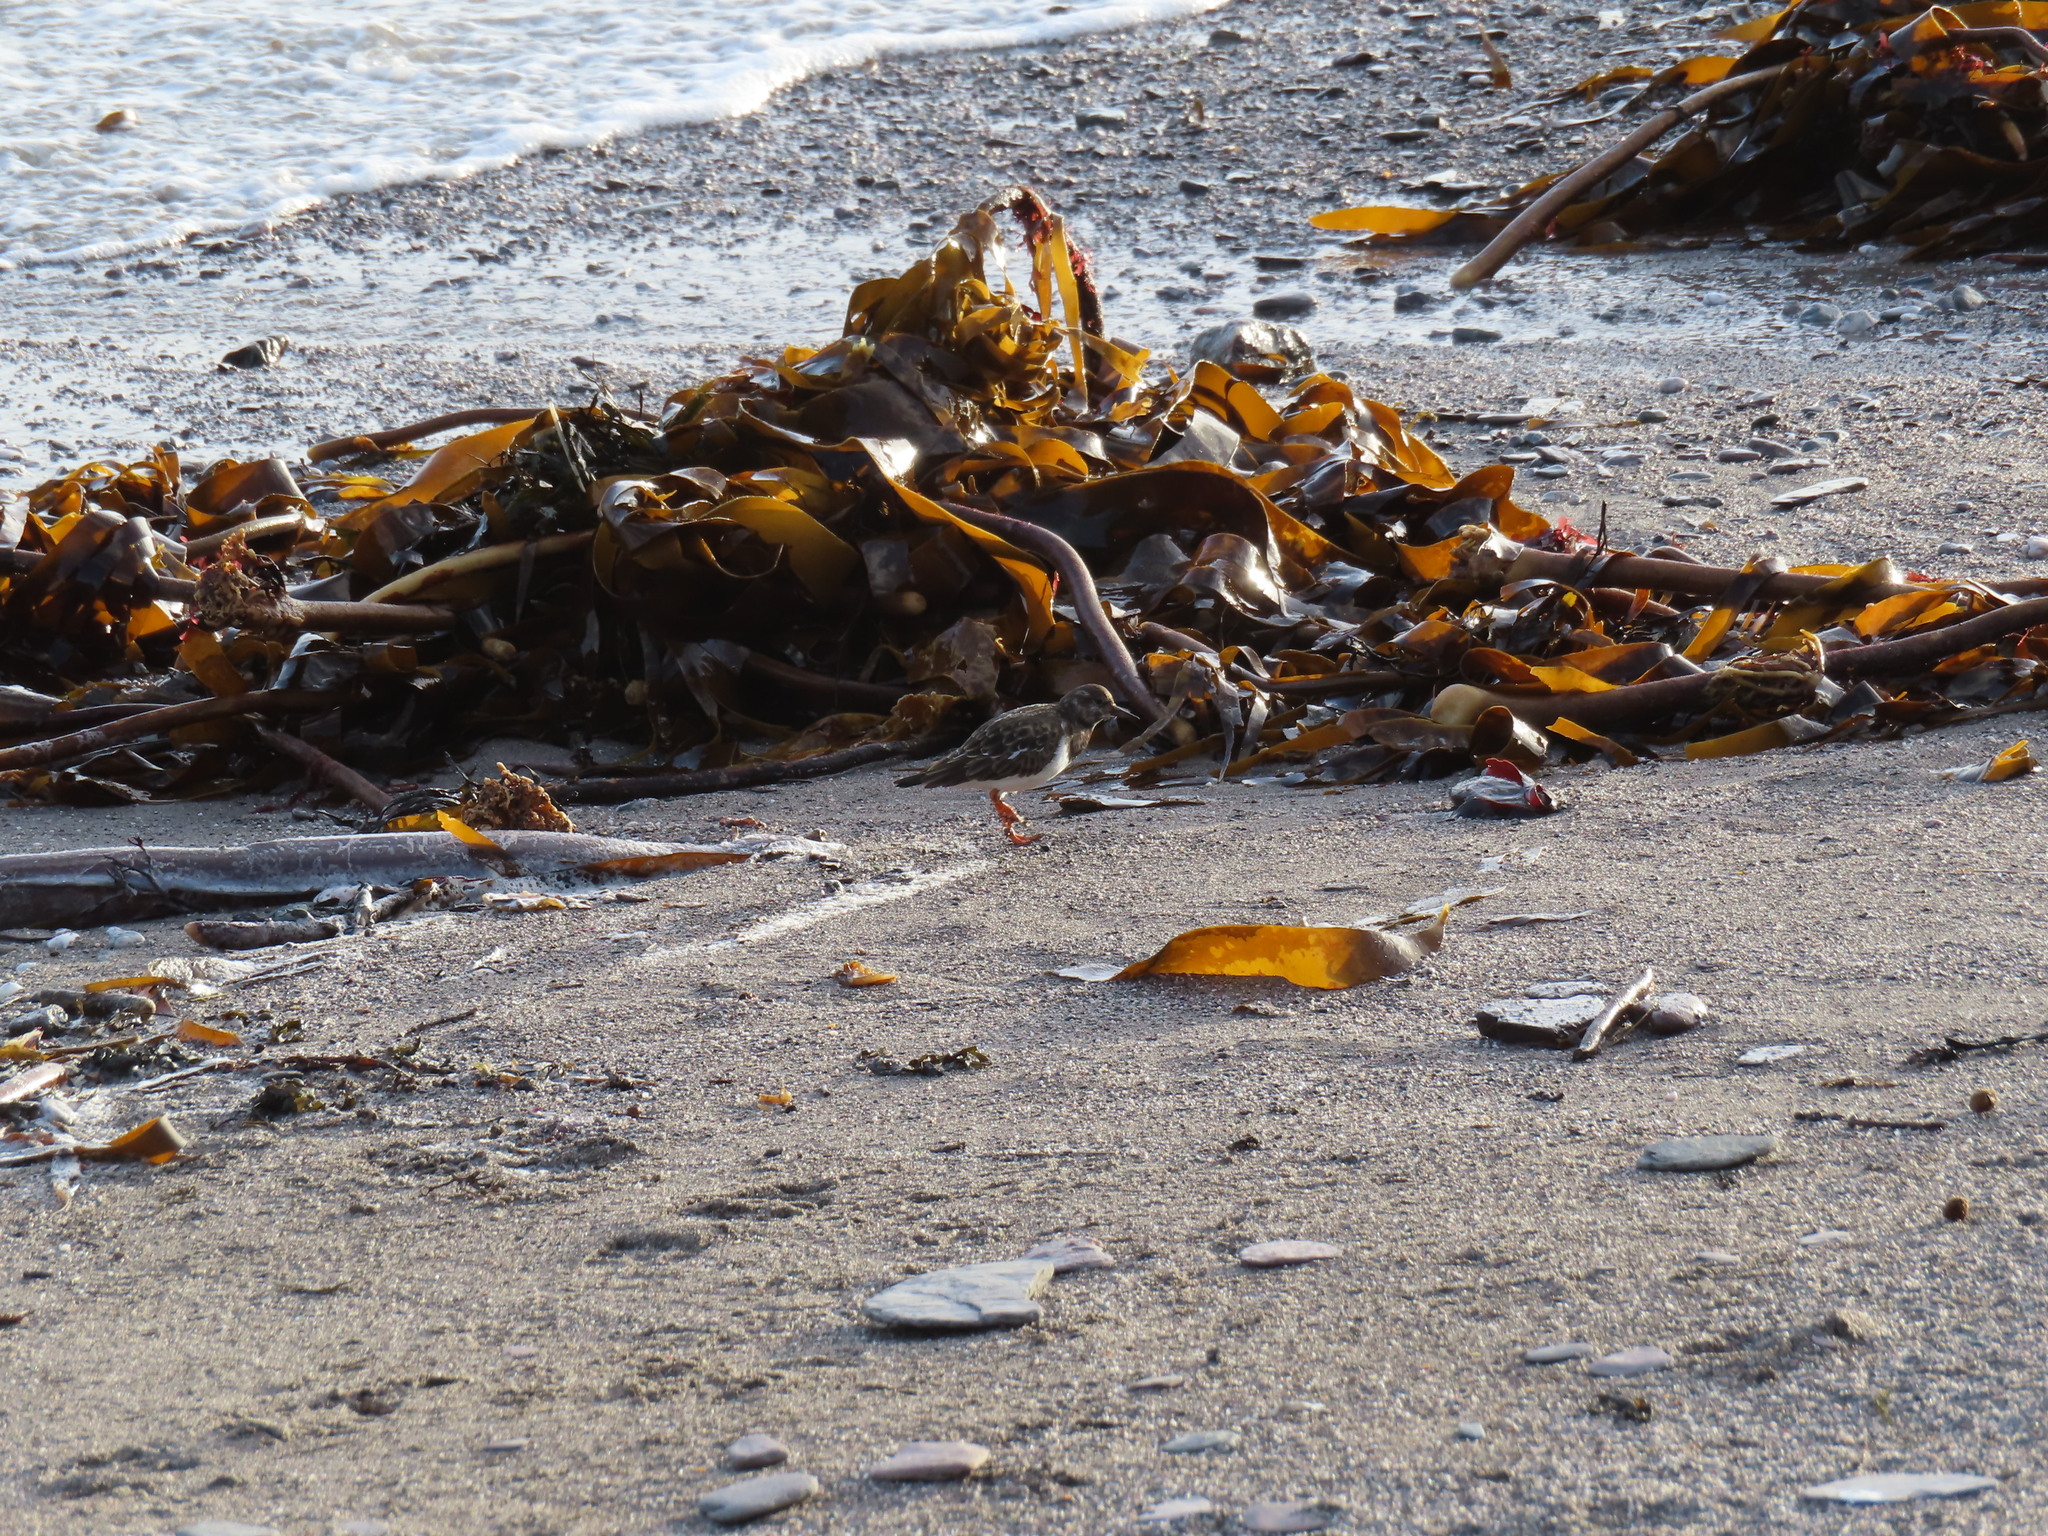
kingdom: Animalia
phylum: Chordata
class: Aves
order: Charadriiformes
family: Scolopacidae
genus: Arenaria
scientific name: Arenaria interpres
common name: Ruddy turnstone
